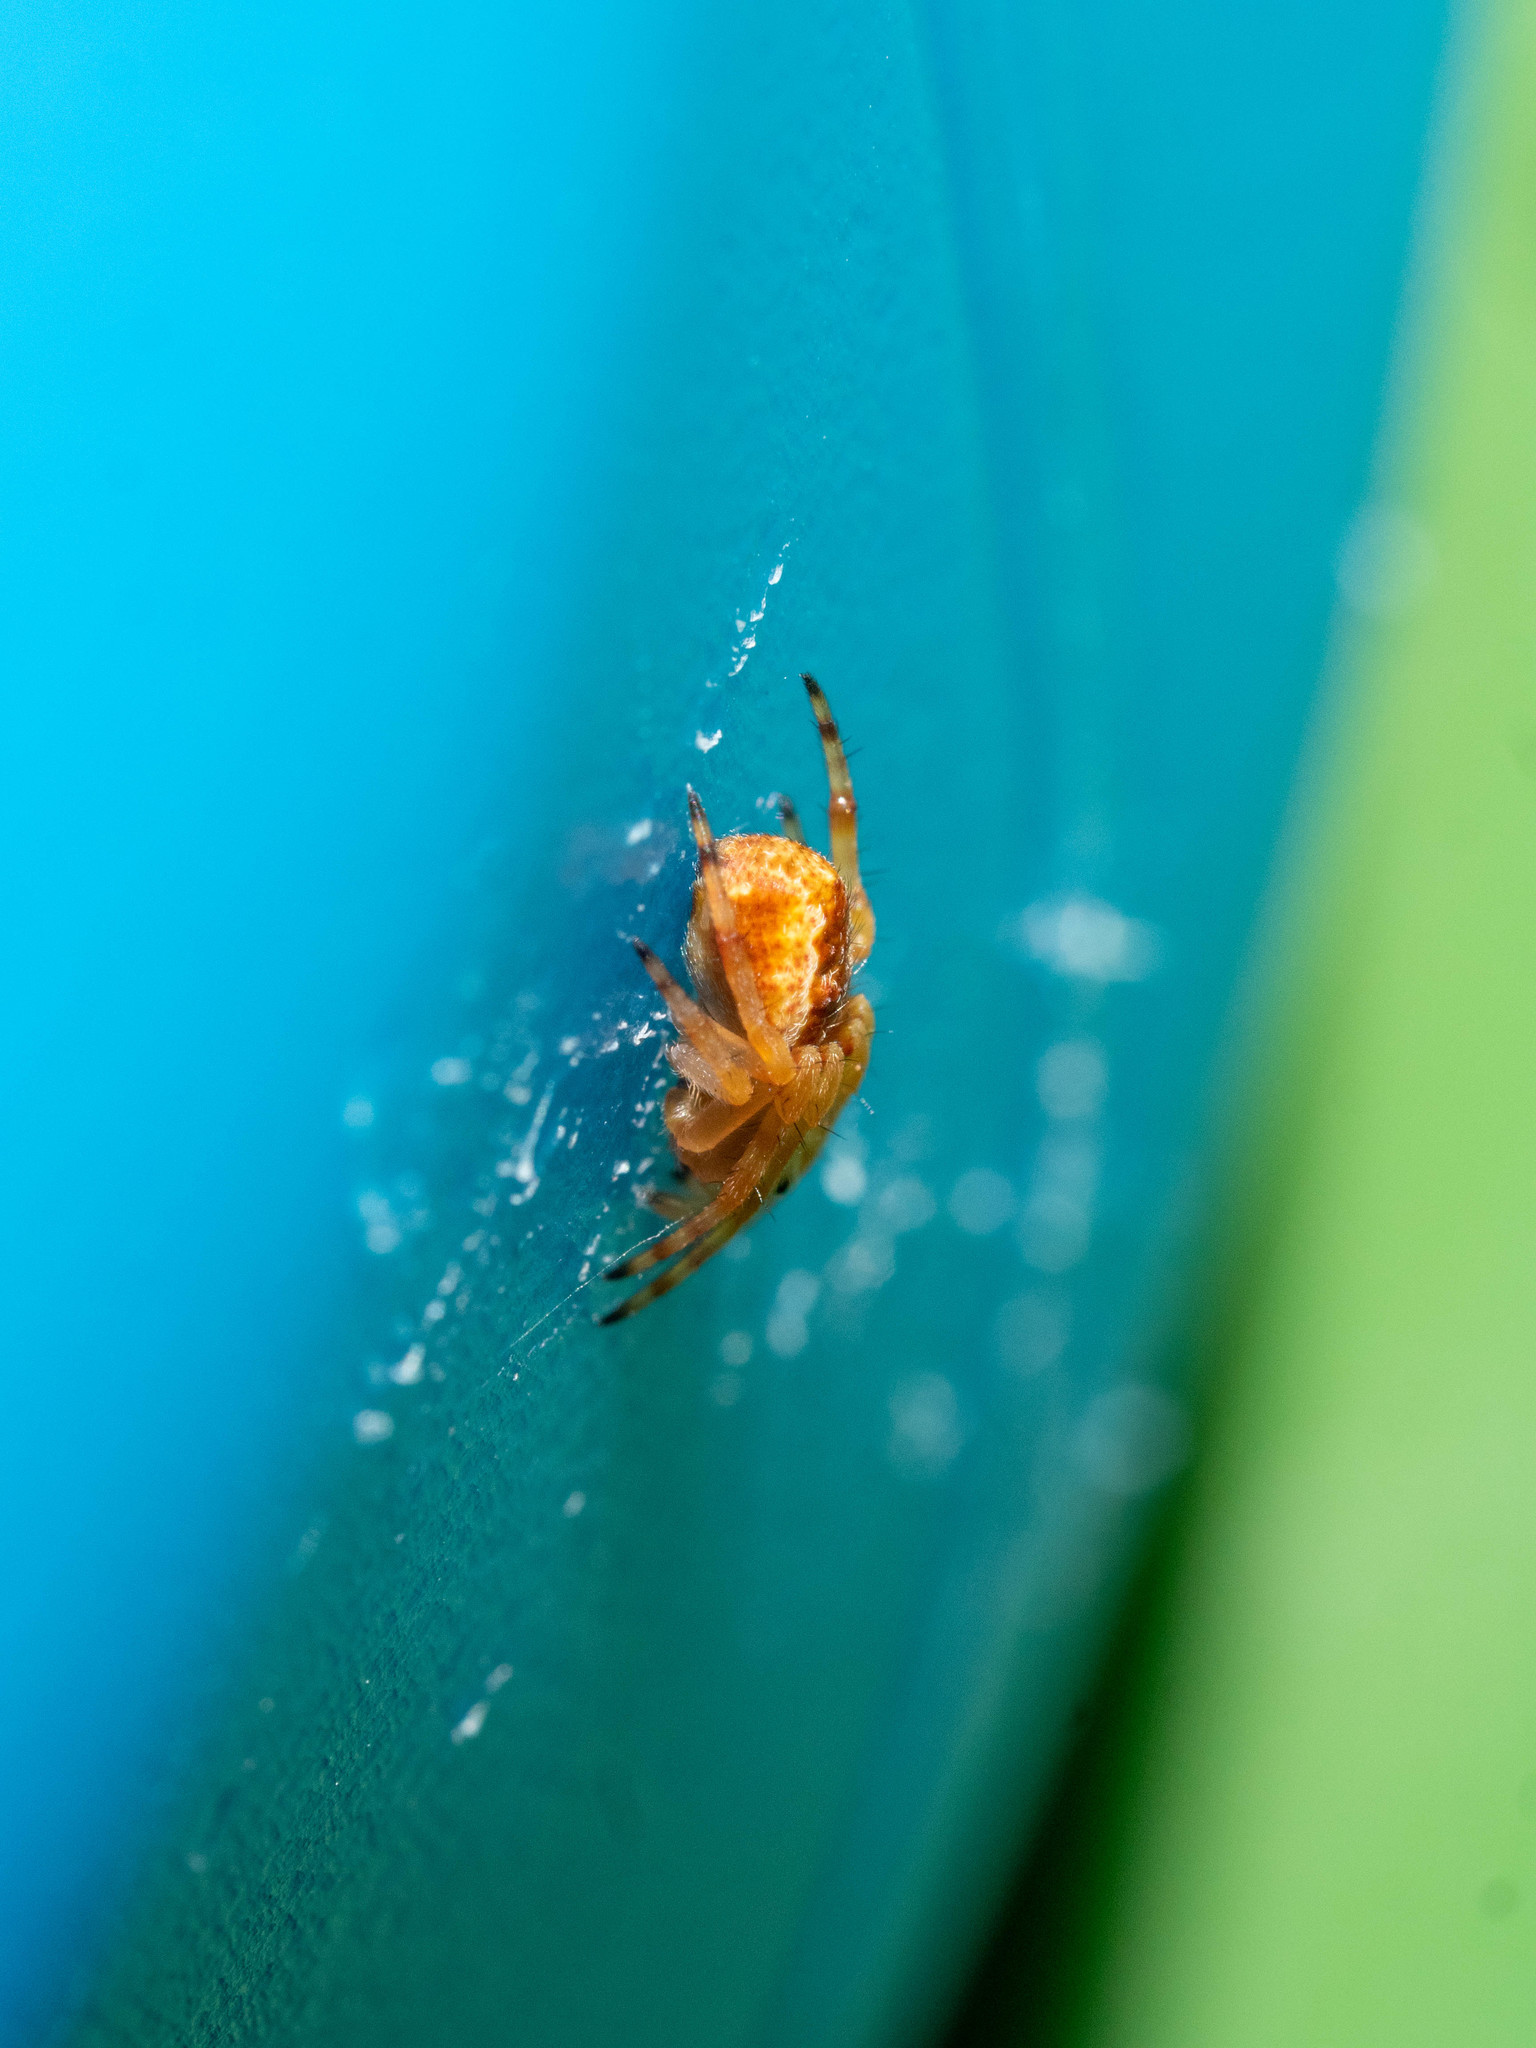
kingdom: Animalia
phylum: Arthropoda
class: Arachnida
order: Araneae
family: Araneidae
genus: Salsa
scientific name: Salsa fuliginata
